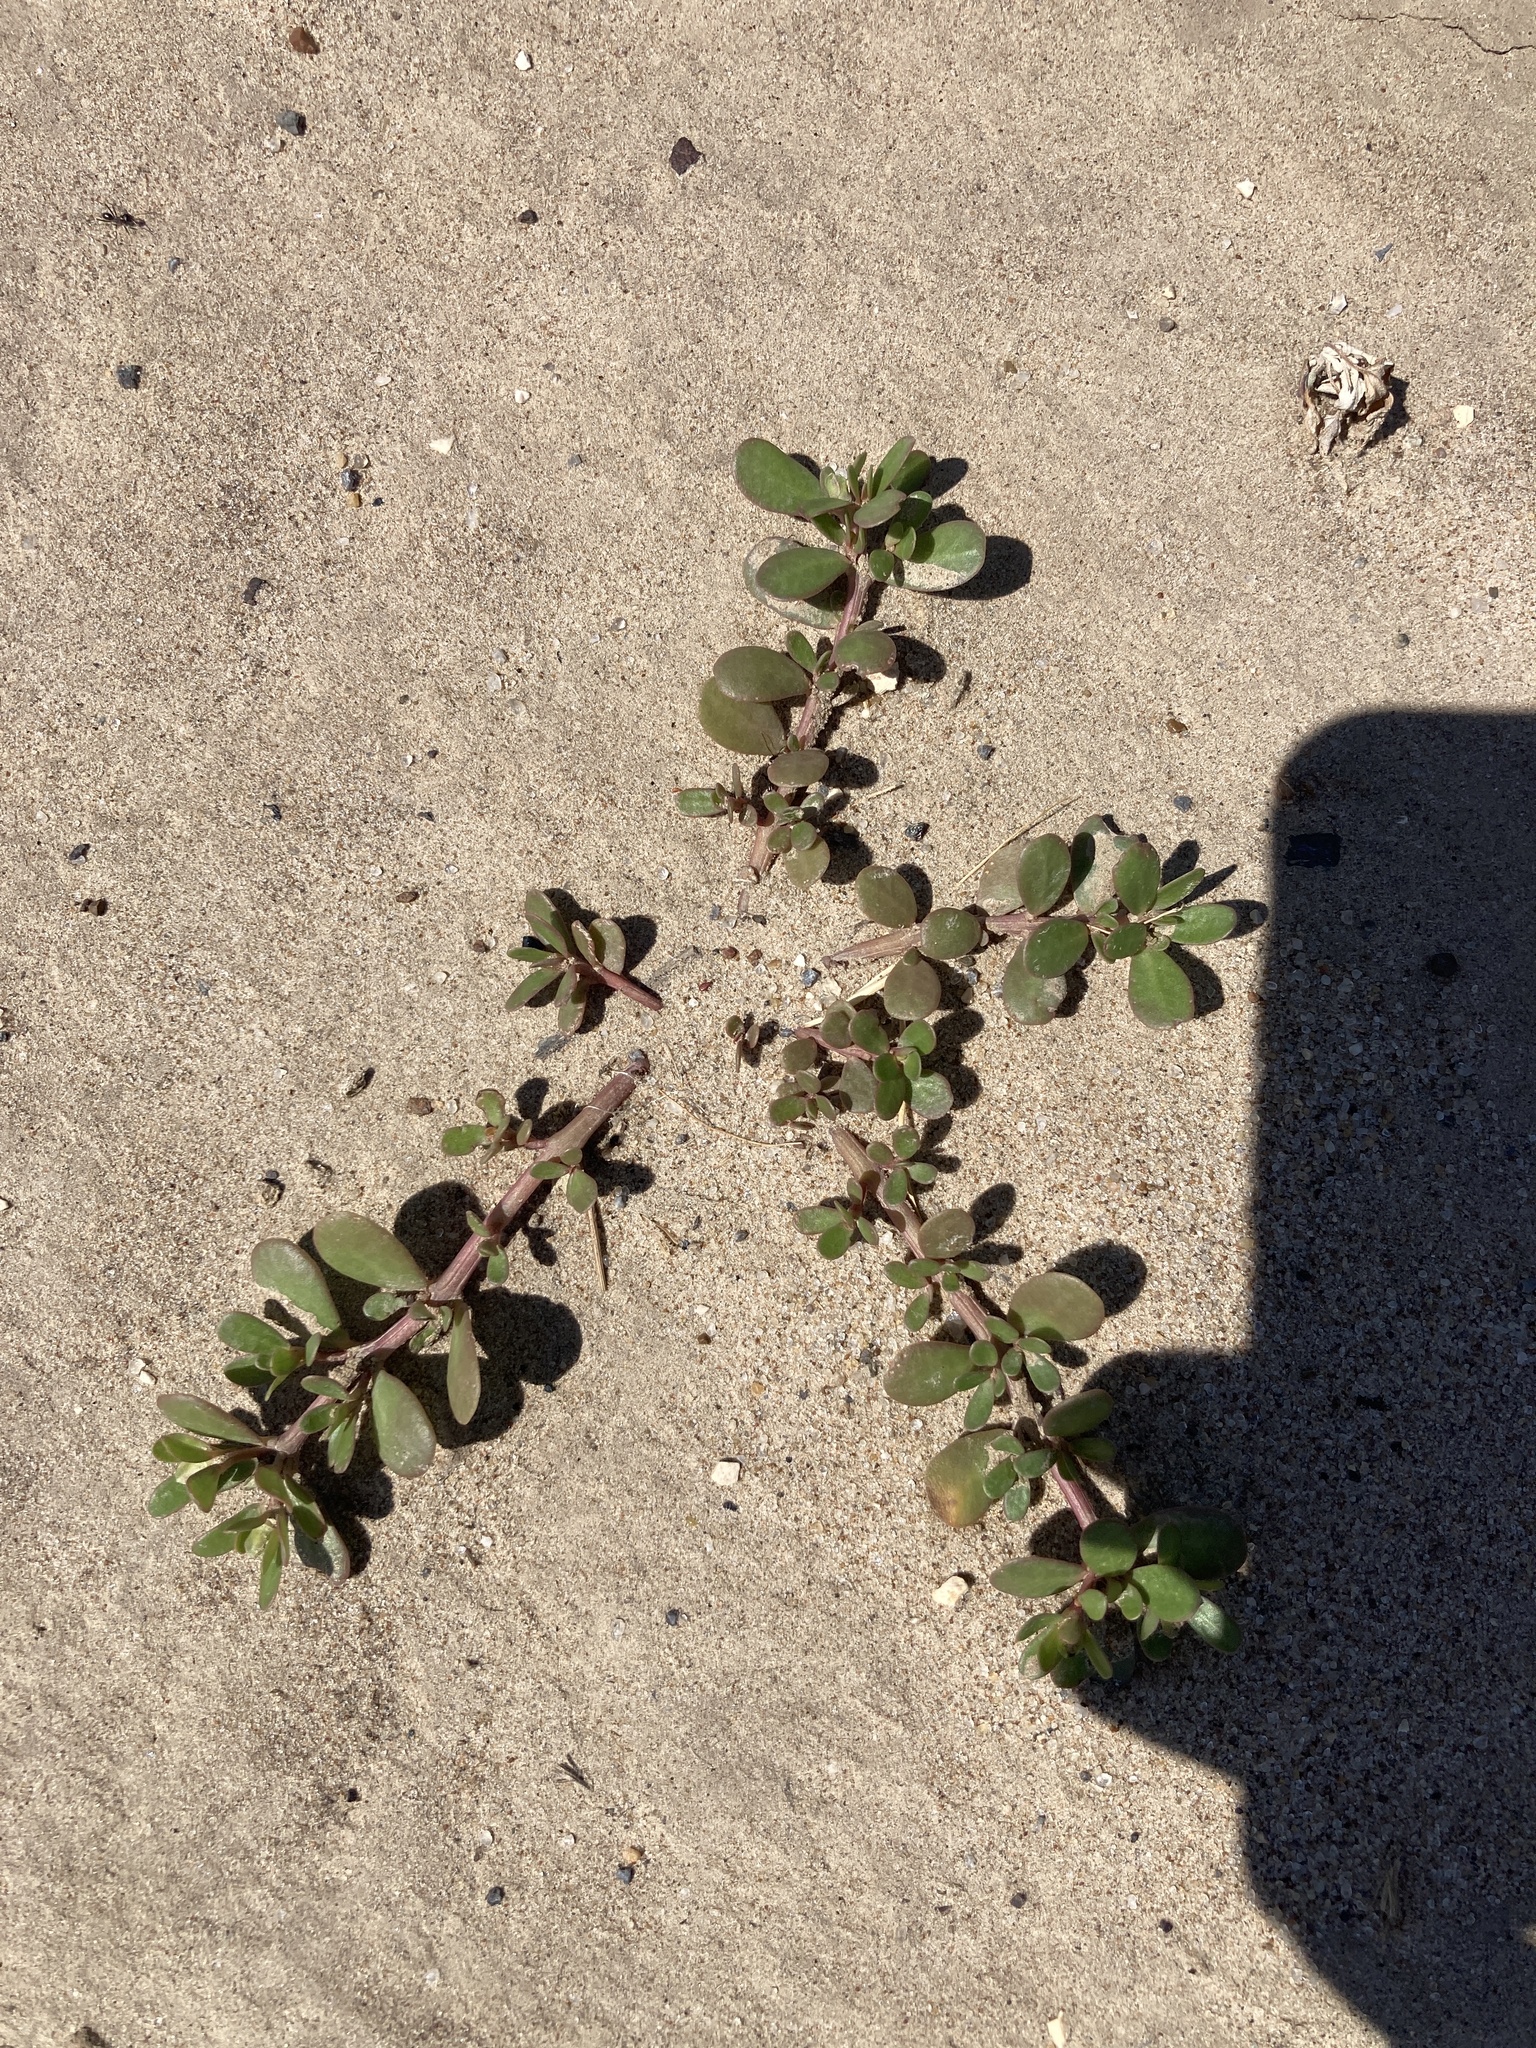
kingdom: Plantae
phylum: Tracheophyta
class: Magnoliopsida
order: Caryophyllales
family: Portulacaceae
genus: Portulaca
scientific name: Portulaca oleracea
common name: Common purslane
